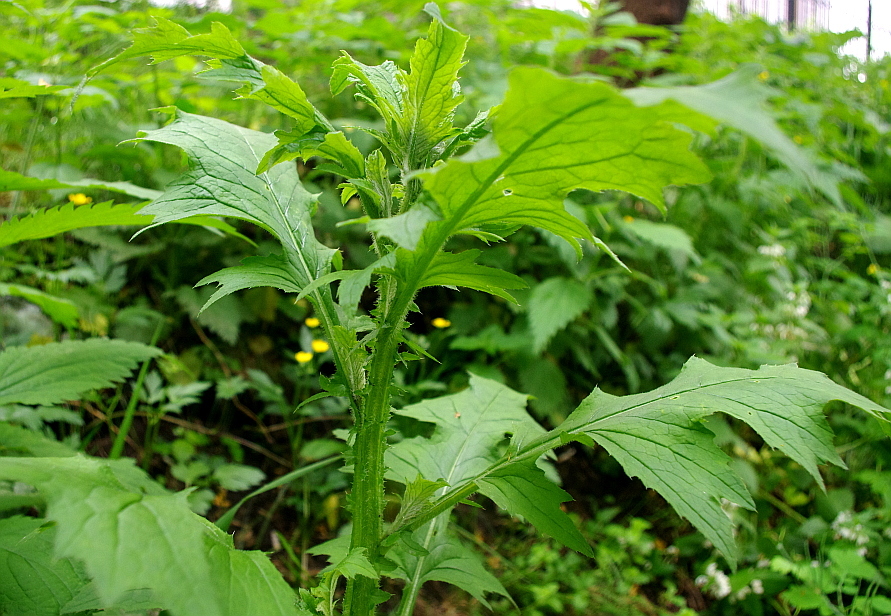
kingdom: Plantae
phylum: Tracheophyta
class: Magnoliopsida
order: Asterales
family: Asteraceae
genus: Carduus
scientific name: Carduus crispus
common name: Welted thistle
